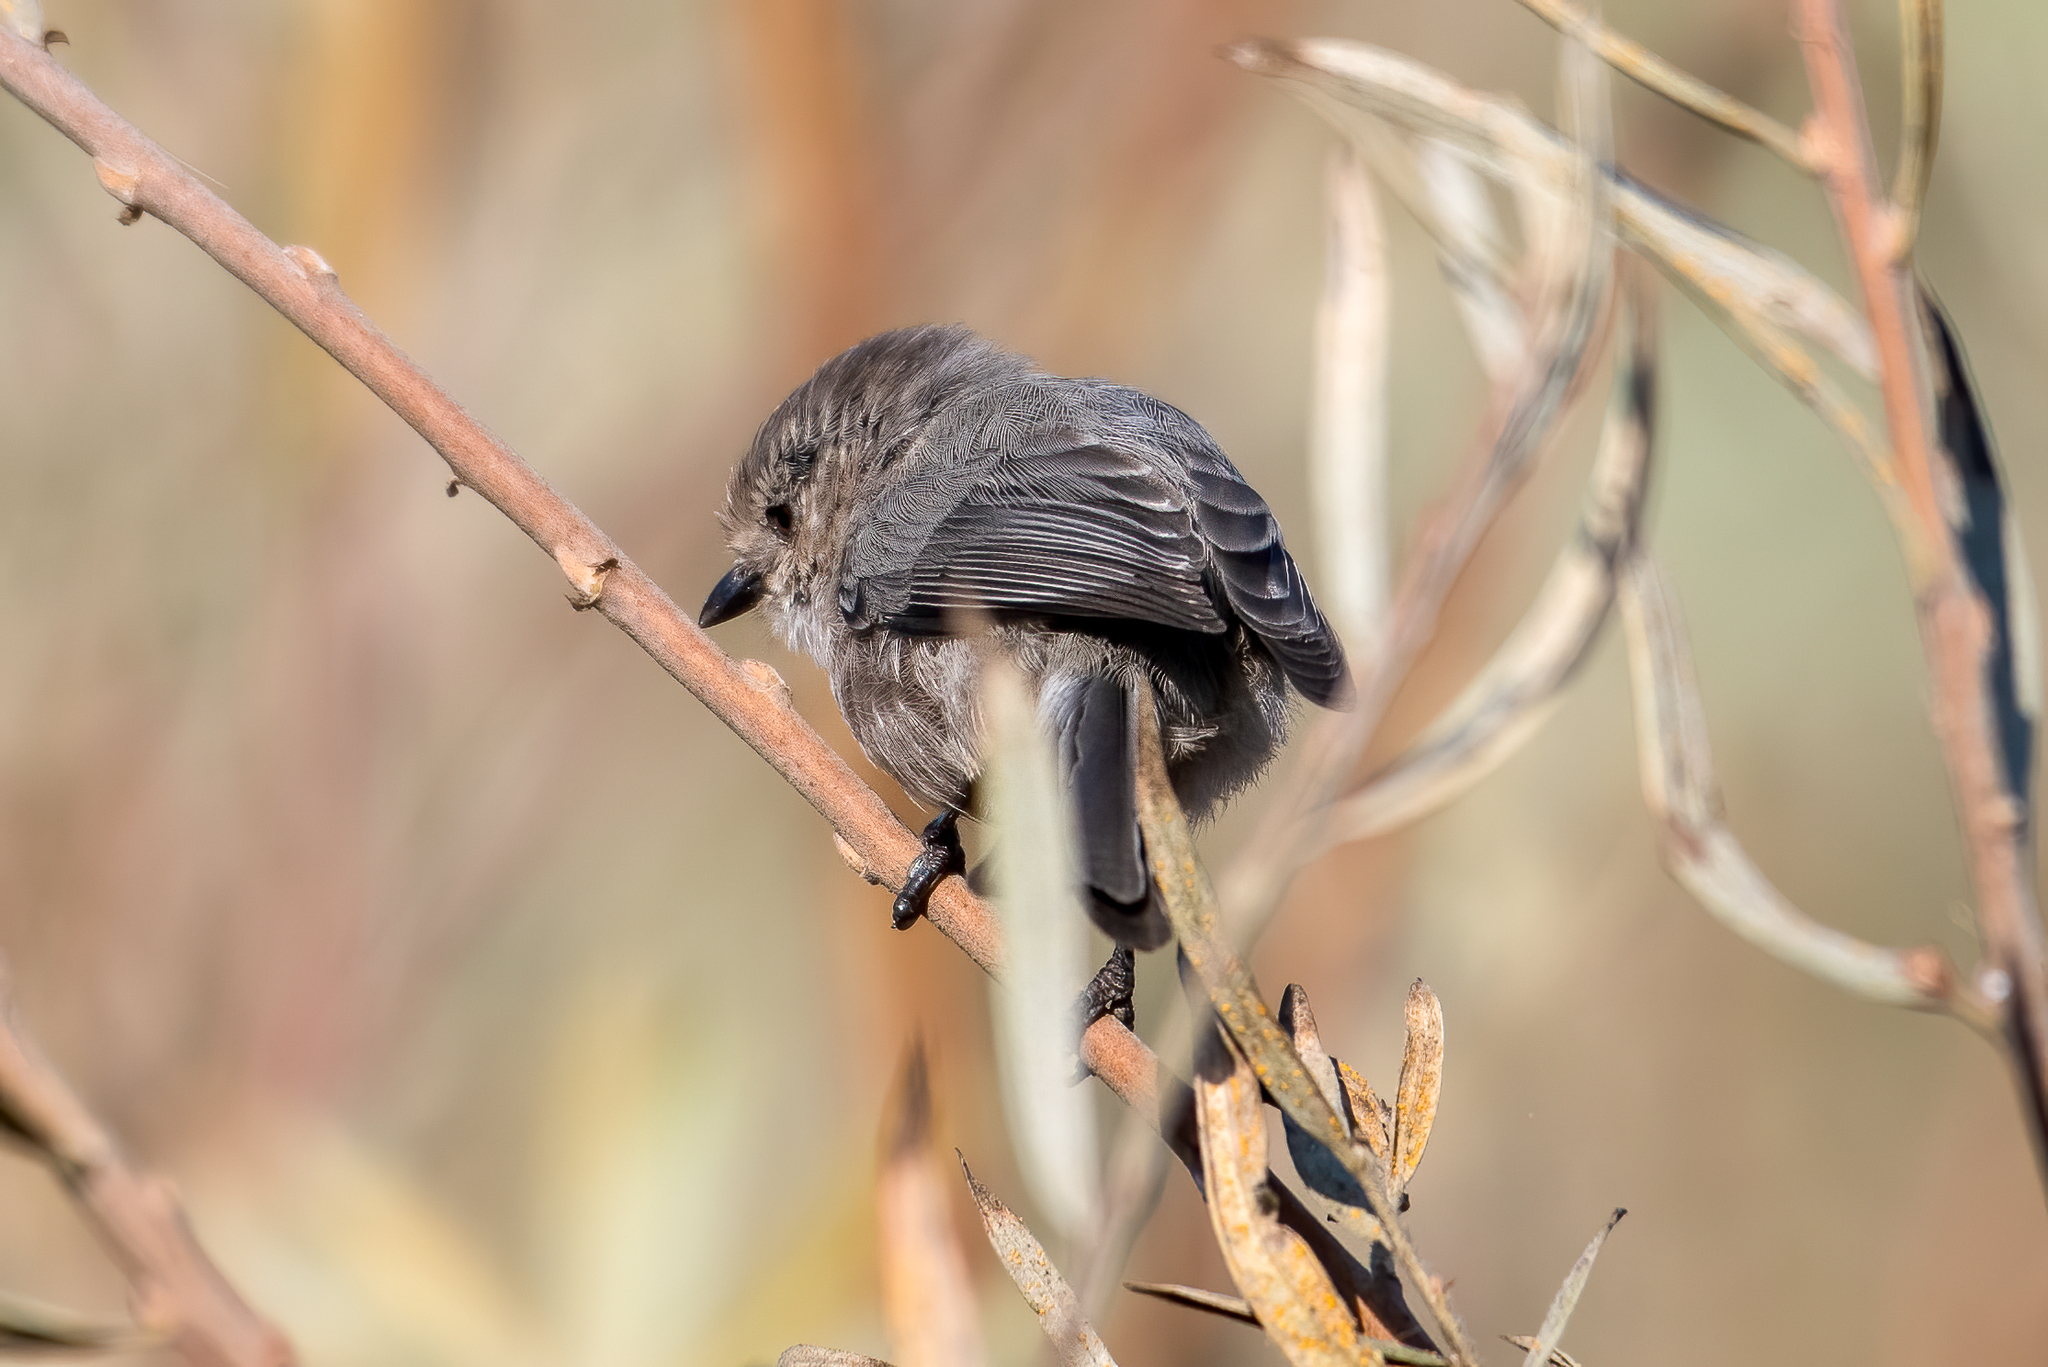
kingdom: Animalia
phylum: Chordata
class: Aves
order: Passeriformes
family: Aegithalidae
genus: Psaltriparus
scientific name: Psaltriparus minimus
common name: American bushtit
